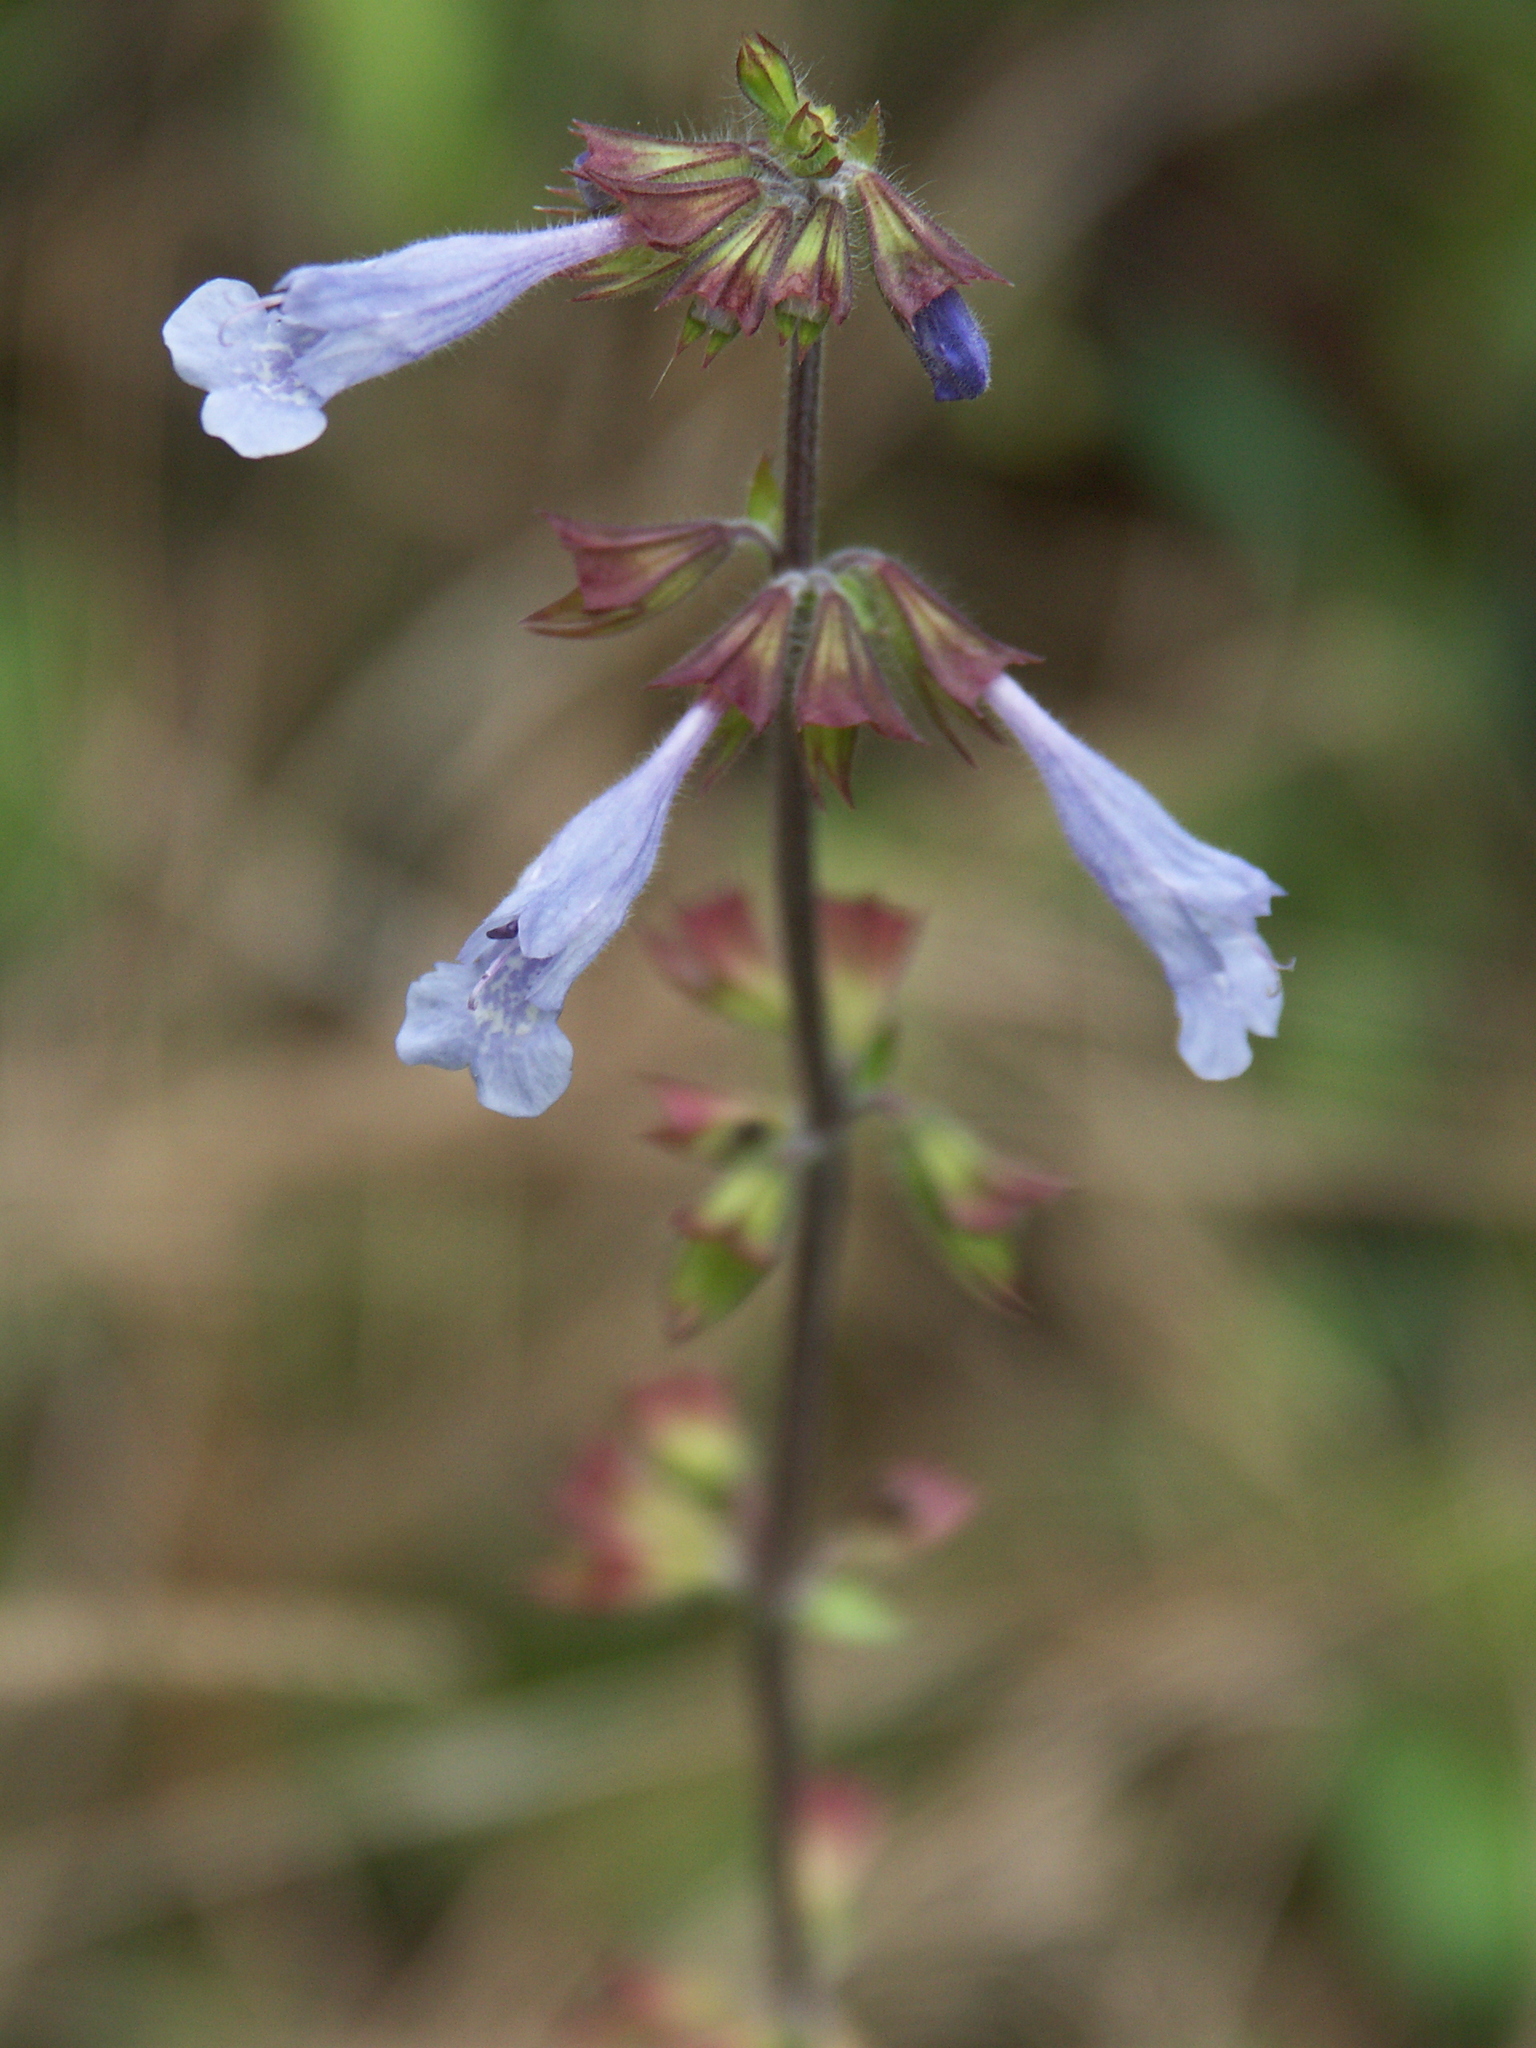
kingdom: Plantae
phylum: Tracheophyta
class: Magnoliopsida
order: Lamiales
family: Lamiaceae
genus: Salvia
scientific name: Salvia lyrata
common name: Cancerweed
